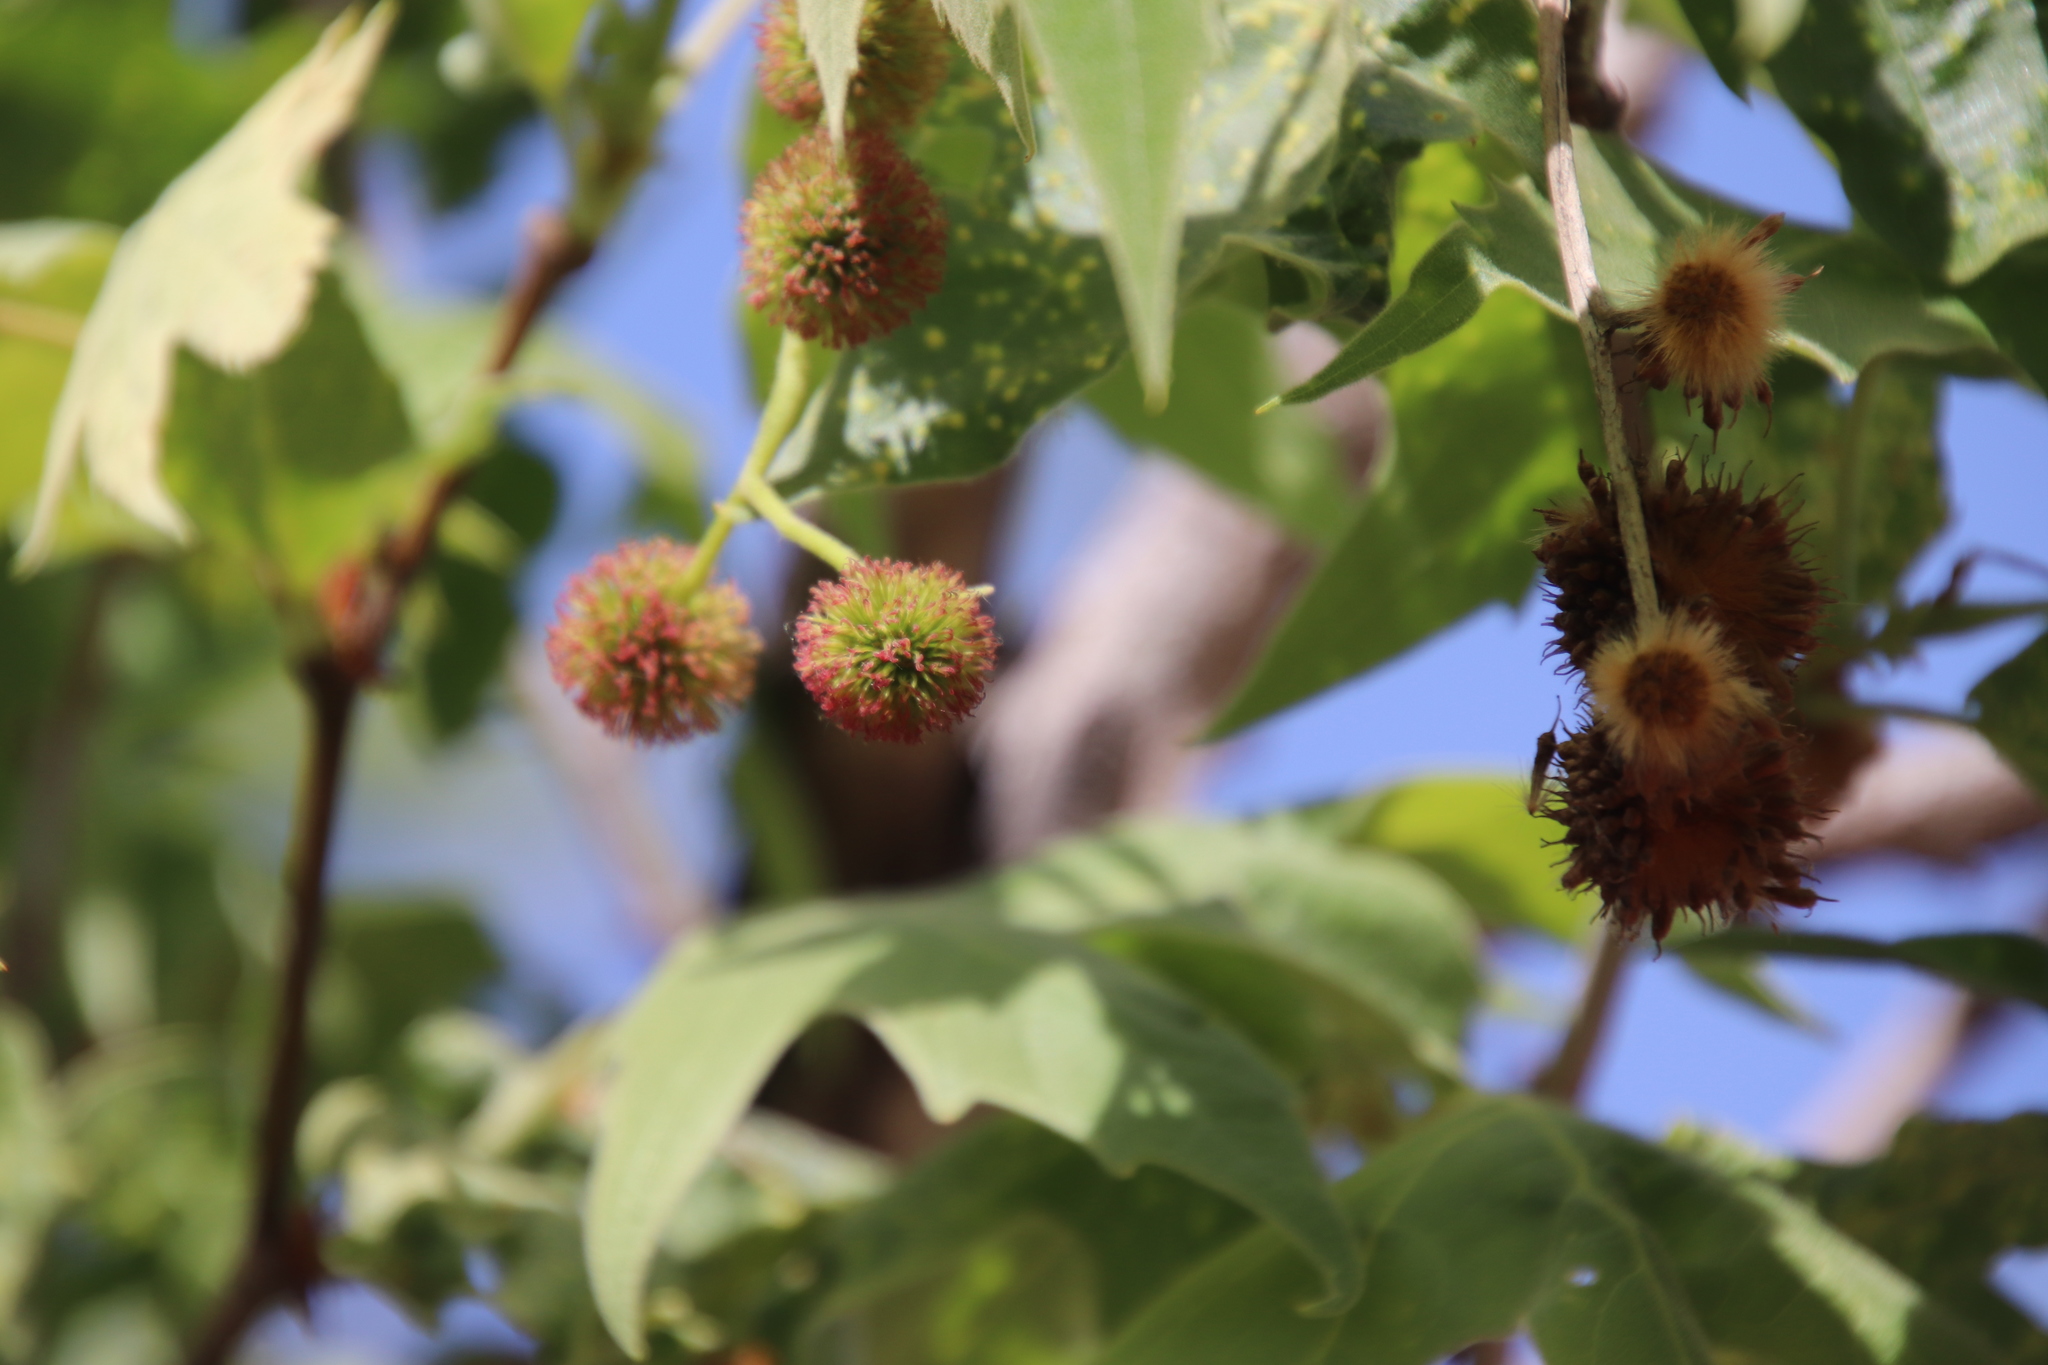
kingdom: Plantae
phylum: Tracheophyta
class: Magnoliopsida
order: Proteales
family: Platanaceae
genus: Platanus
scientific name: Platanus racemosa
